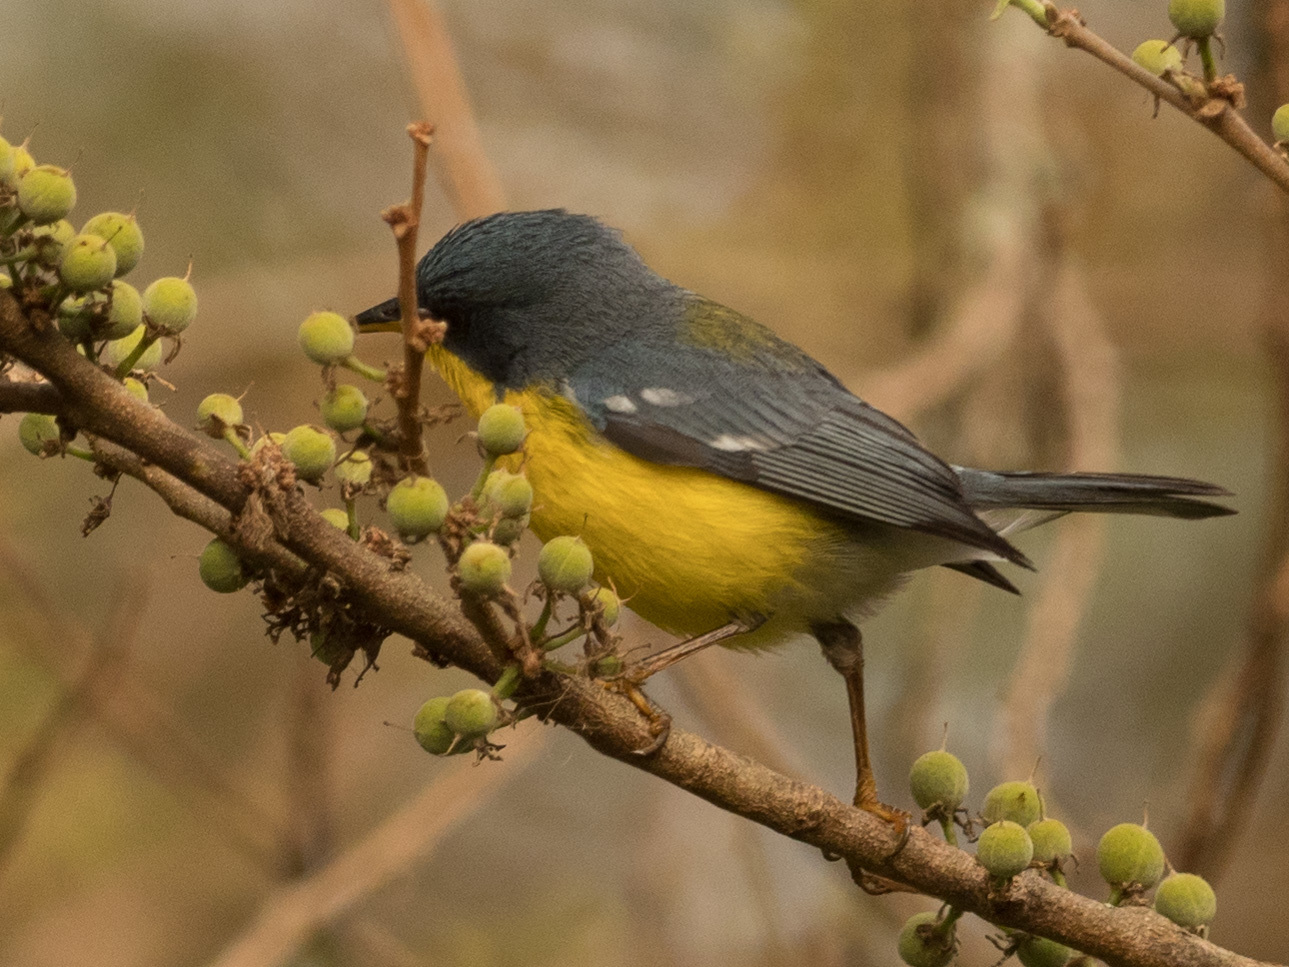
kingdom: Animalia
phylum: Chordata
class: Aves
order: Passeriformes
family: Parulidae
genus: Setophaga
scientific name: Setophaga pitiayumi
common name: Tropical parula
